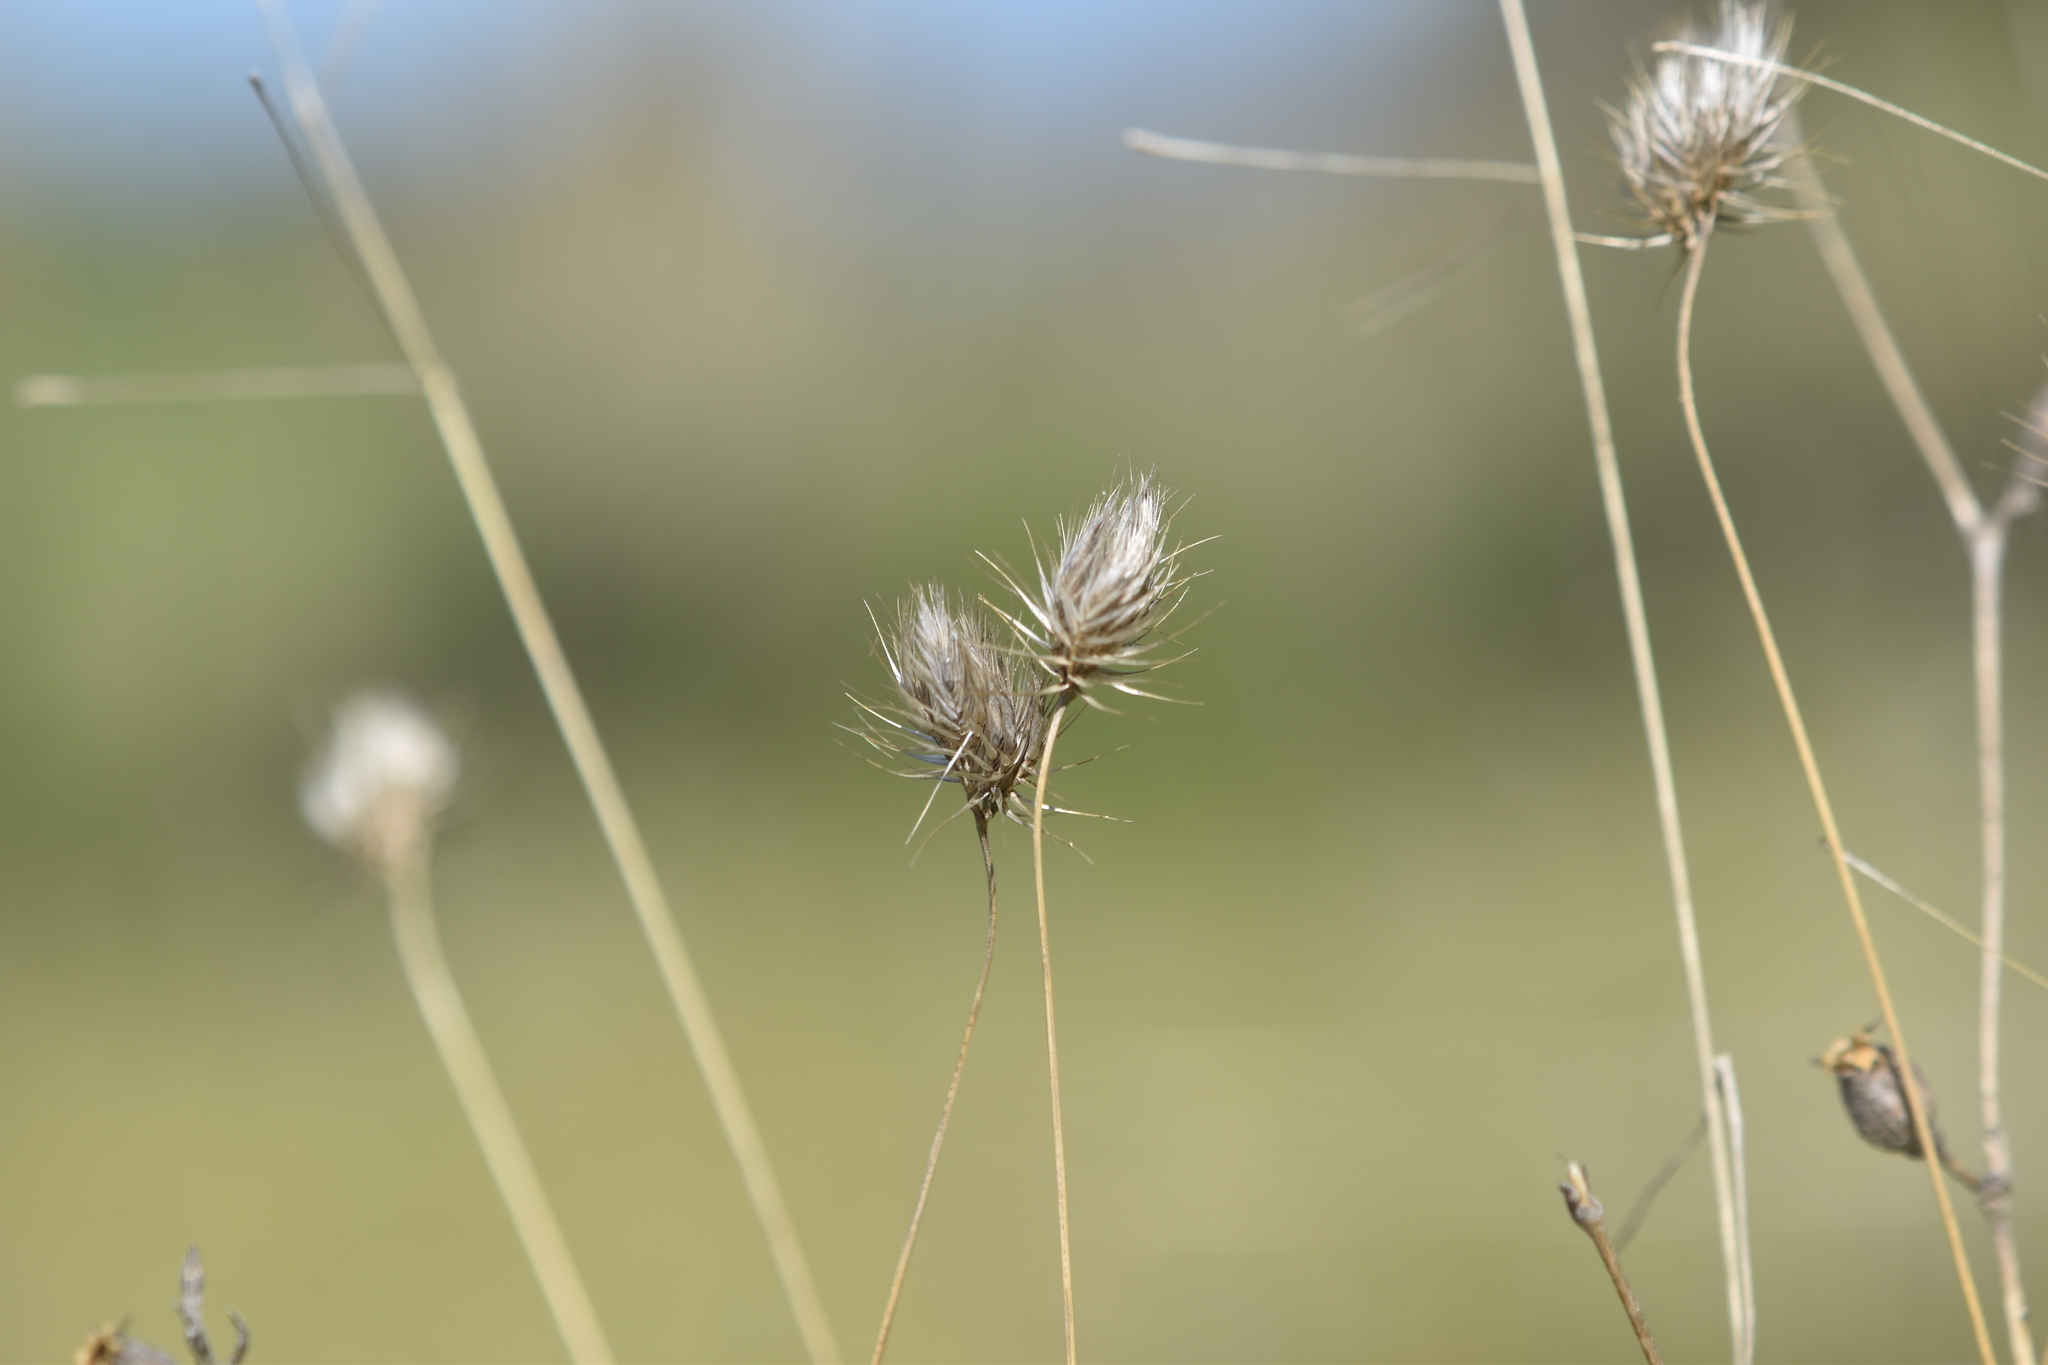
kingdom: Plantae
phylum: Tracheophyta
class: Liliopsida
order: Poales
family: Poaceae
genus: Cynosurus
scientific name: Cynosurus echinatus
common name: Rough dog's-tail
